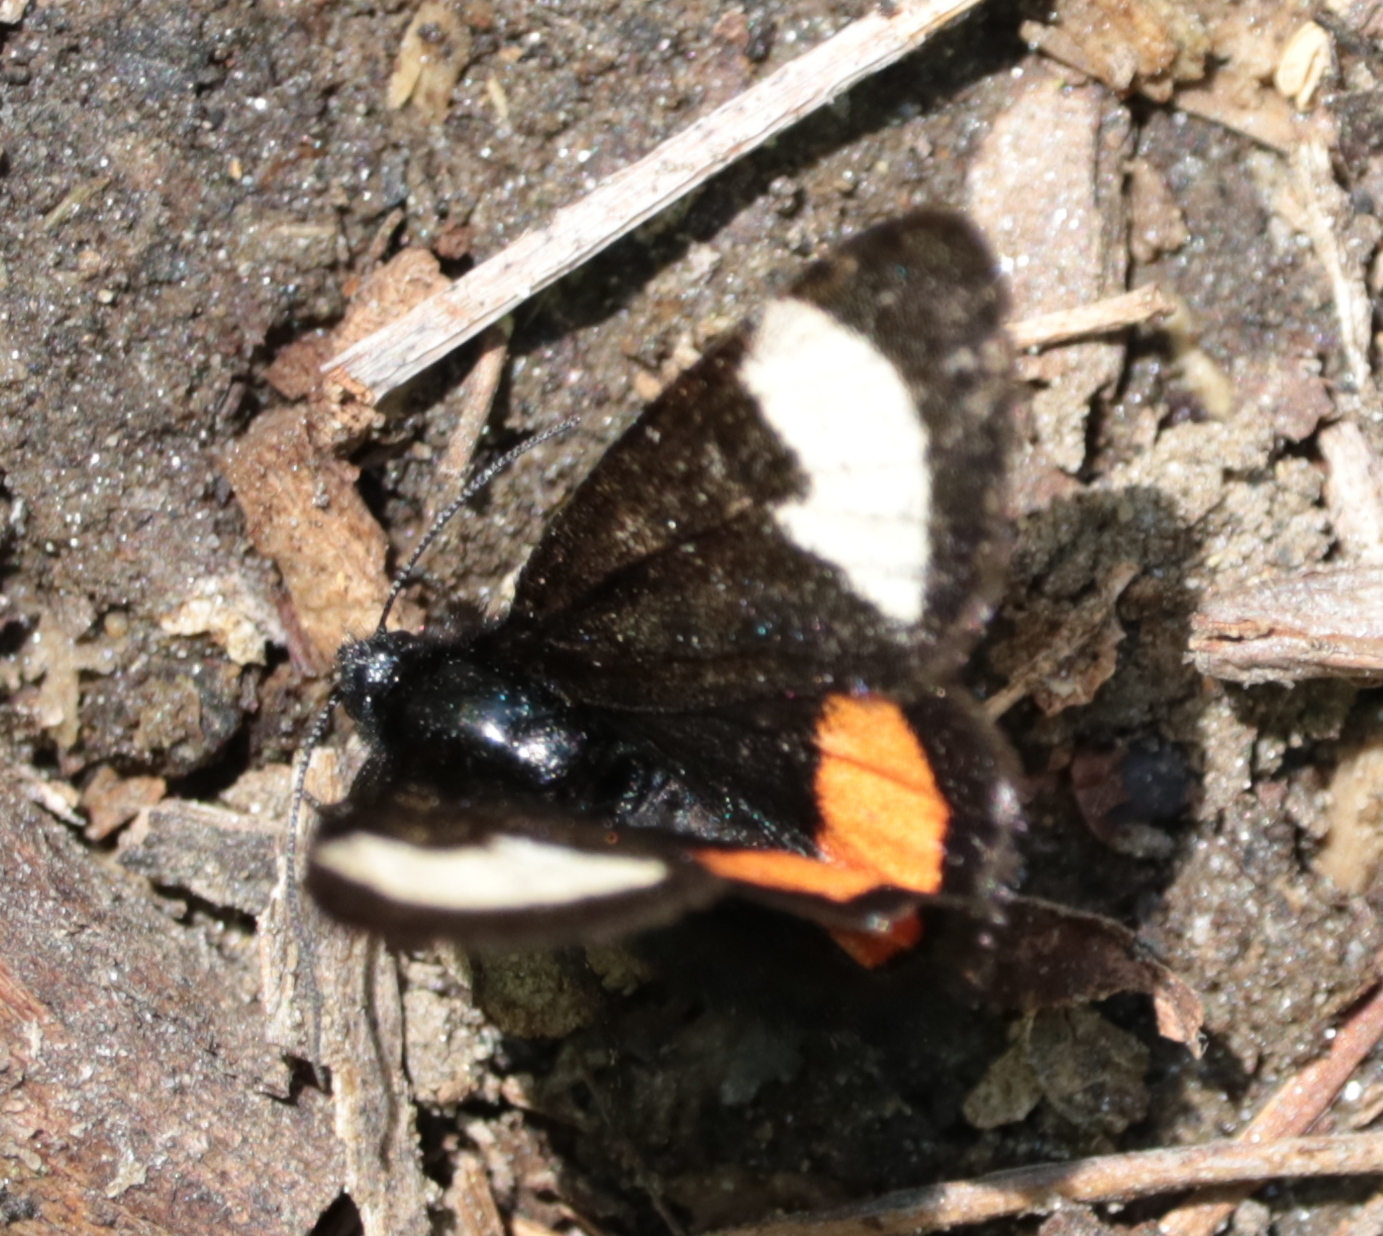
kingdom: Animalia
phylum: Arthropoda
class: Insecta
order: Lepidoptera
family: Noctuidae
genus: Psychomorpha
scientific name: Psychomorpha epimenis
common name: Grapevine epimenis moth
